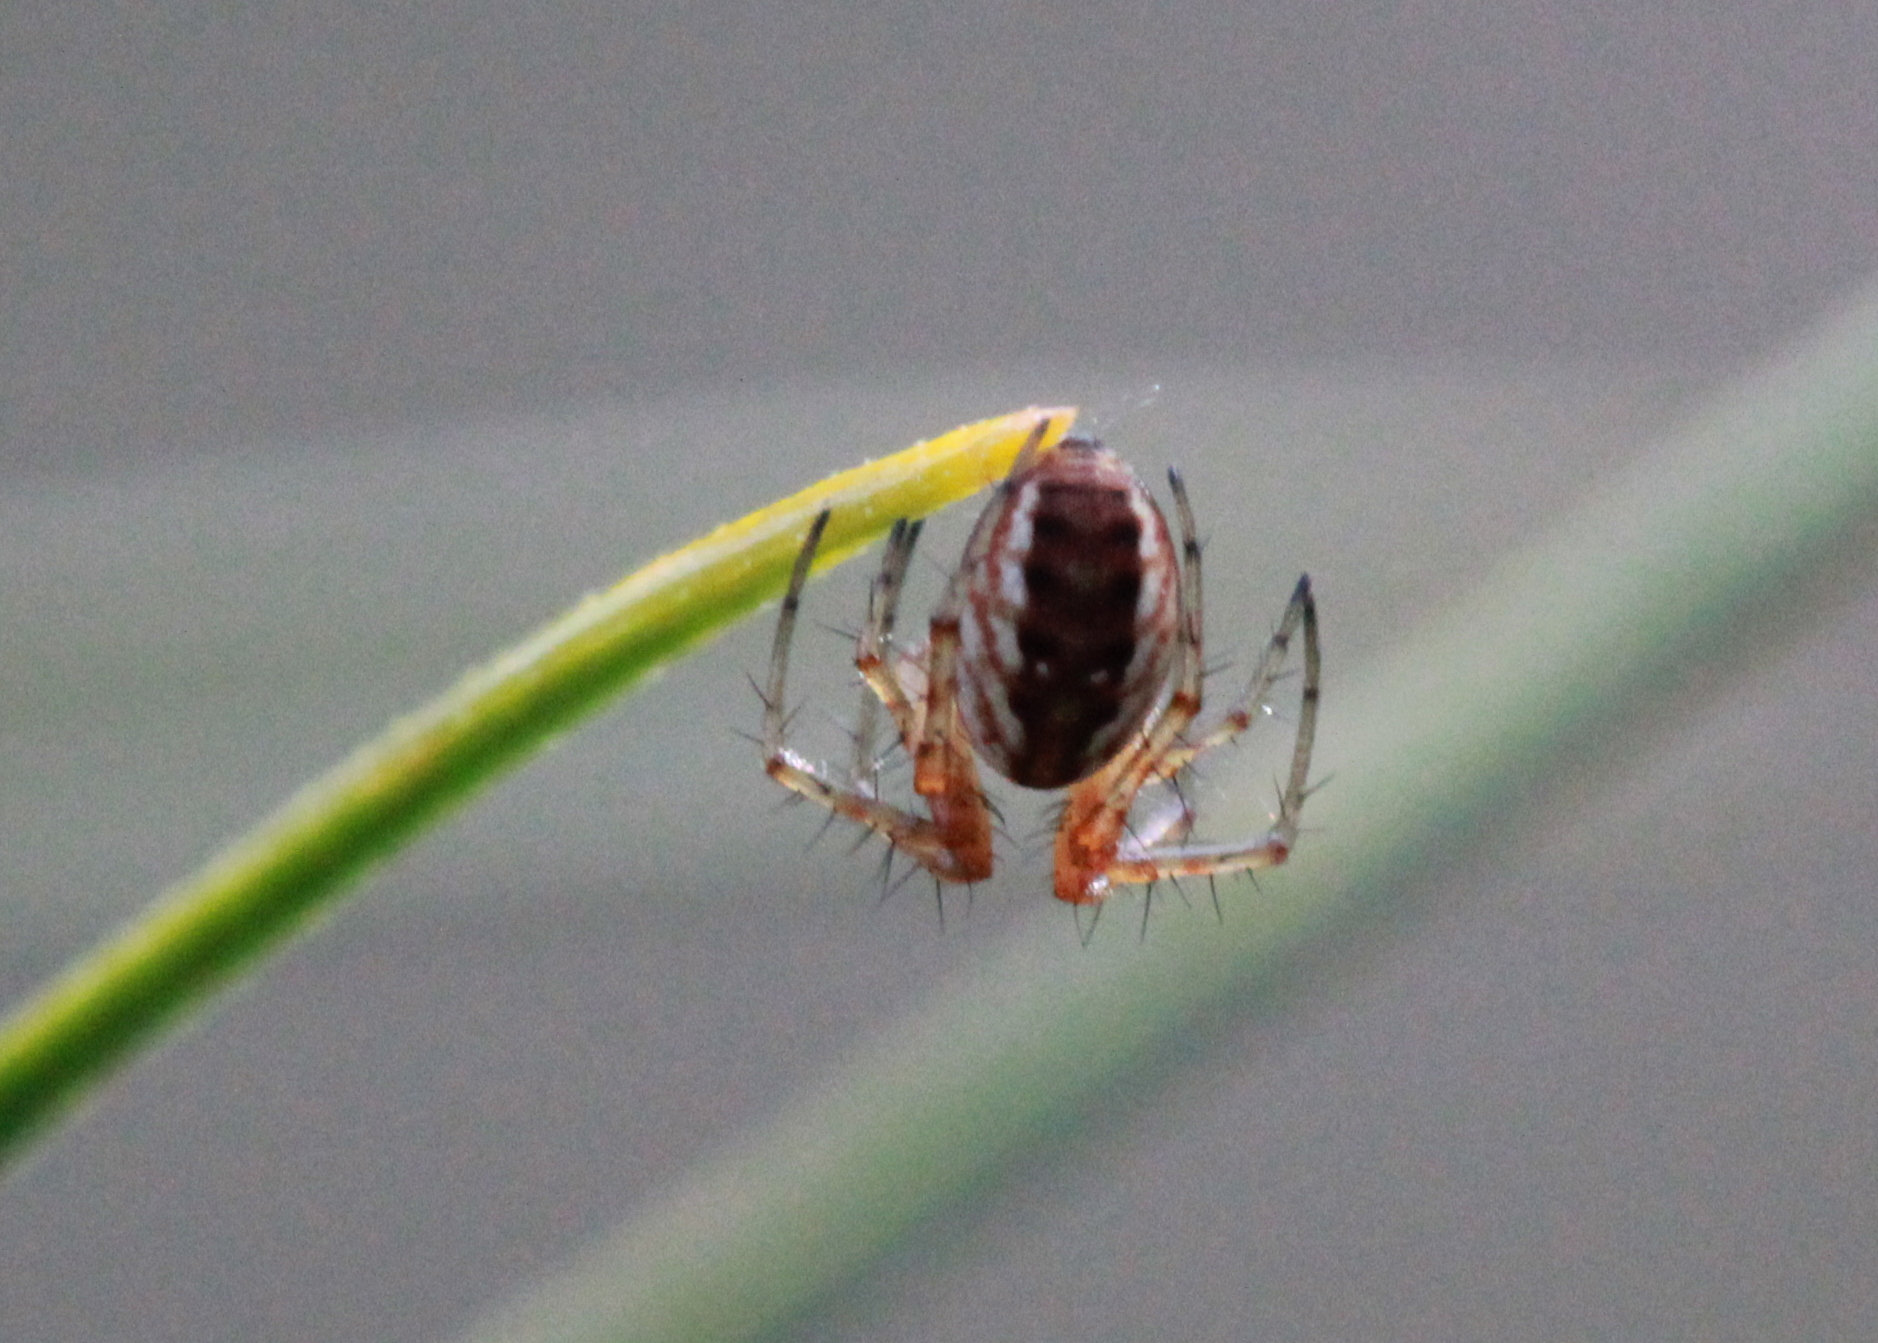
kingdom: Animalia
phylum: Arthropoda
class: Arachnida
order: Araneae
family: Araneidae
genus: Mangora
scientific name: Mangora placida
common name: Tuft-legged orbweaver
